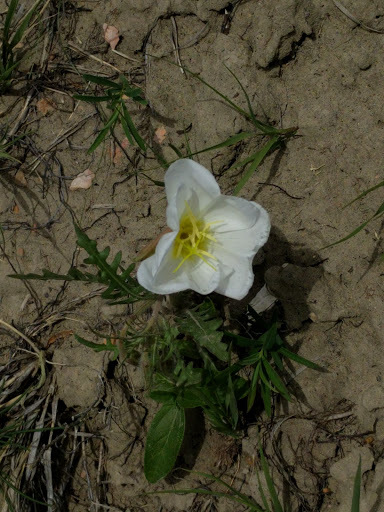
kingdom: Plantae
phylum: Tracheophyta
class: Magnoliopsida
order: Myrtales
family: Onagraceae
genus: Oenothera
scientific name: Oenothera cespitosa
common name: Tufted evening-primrose
